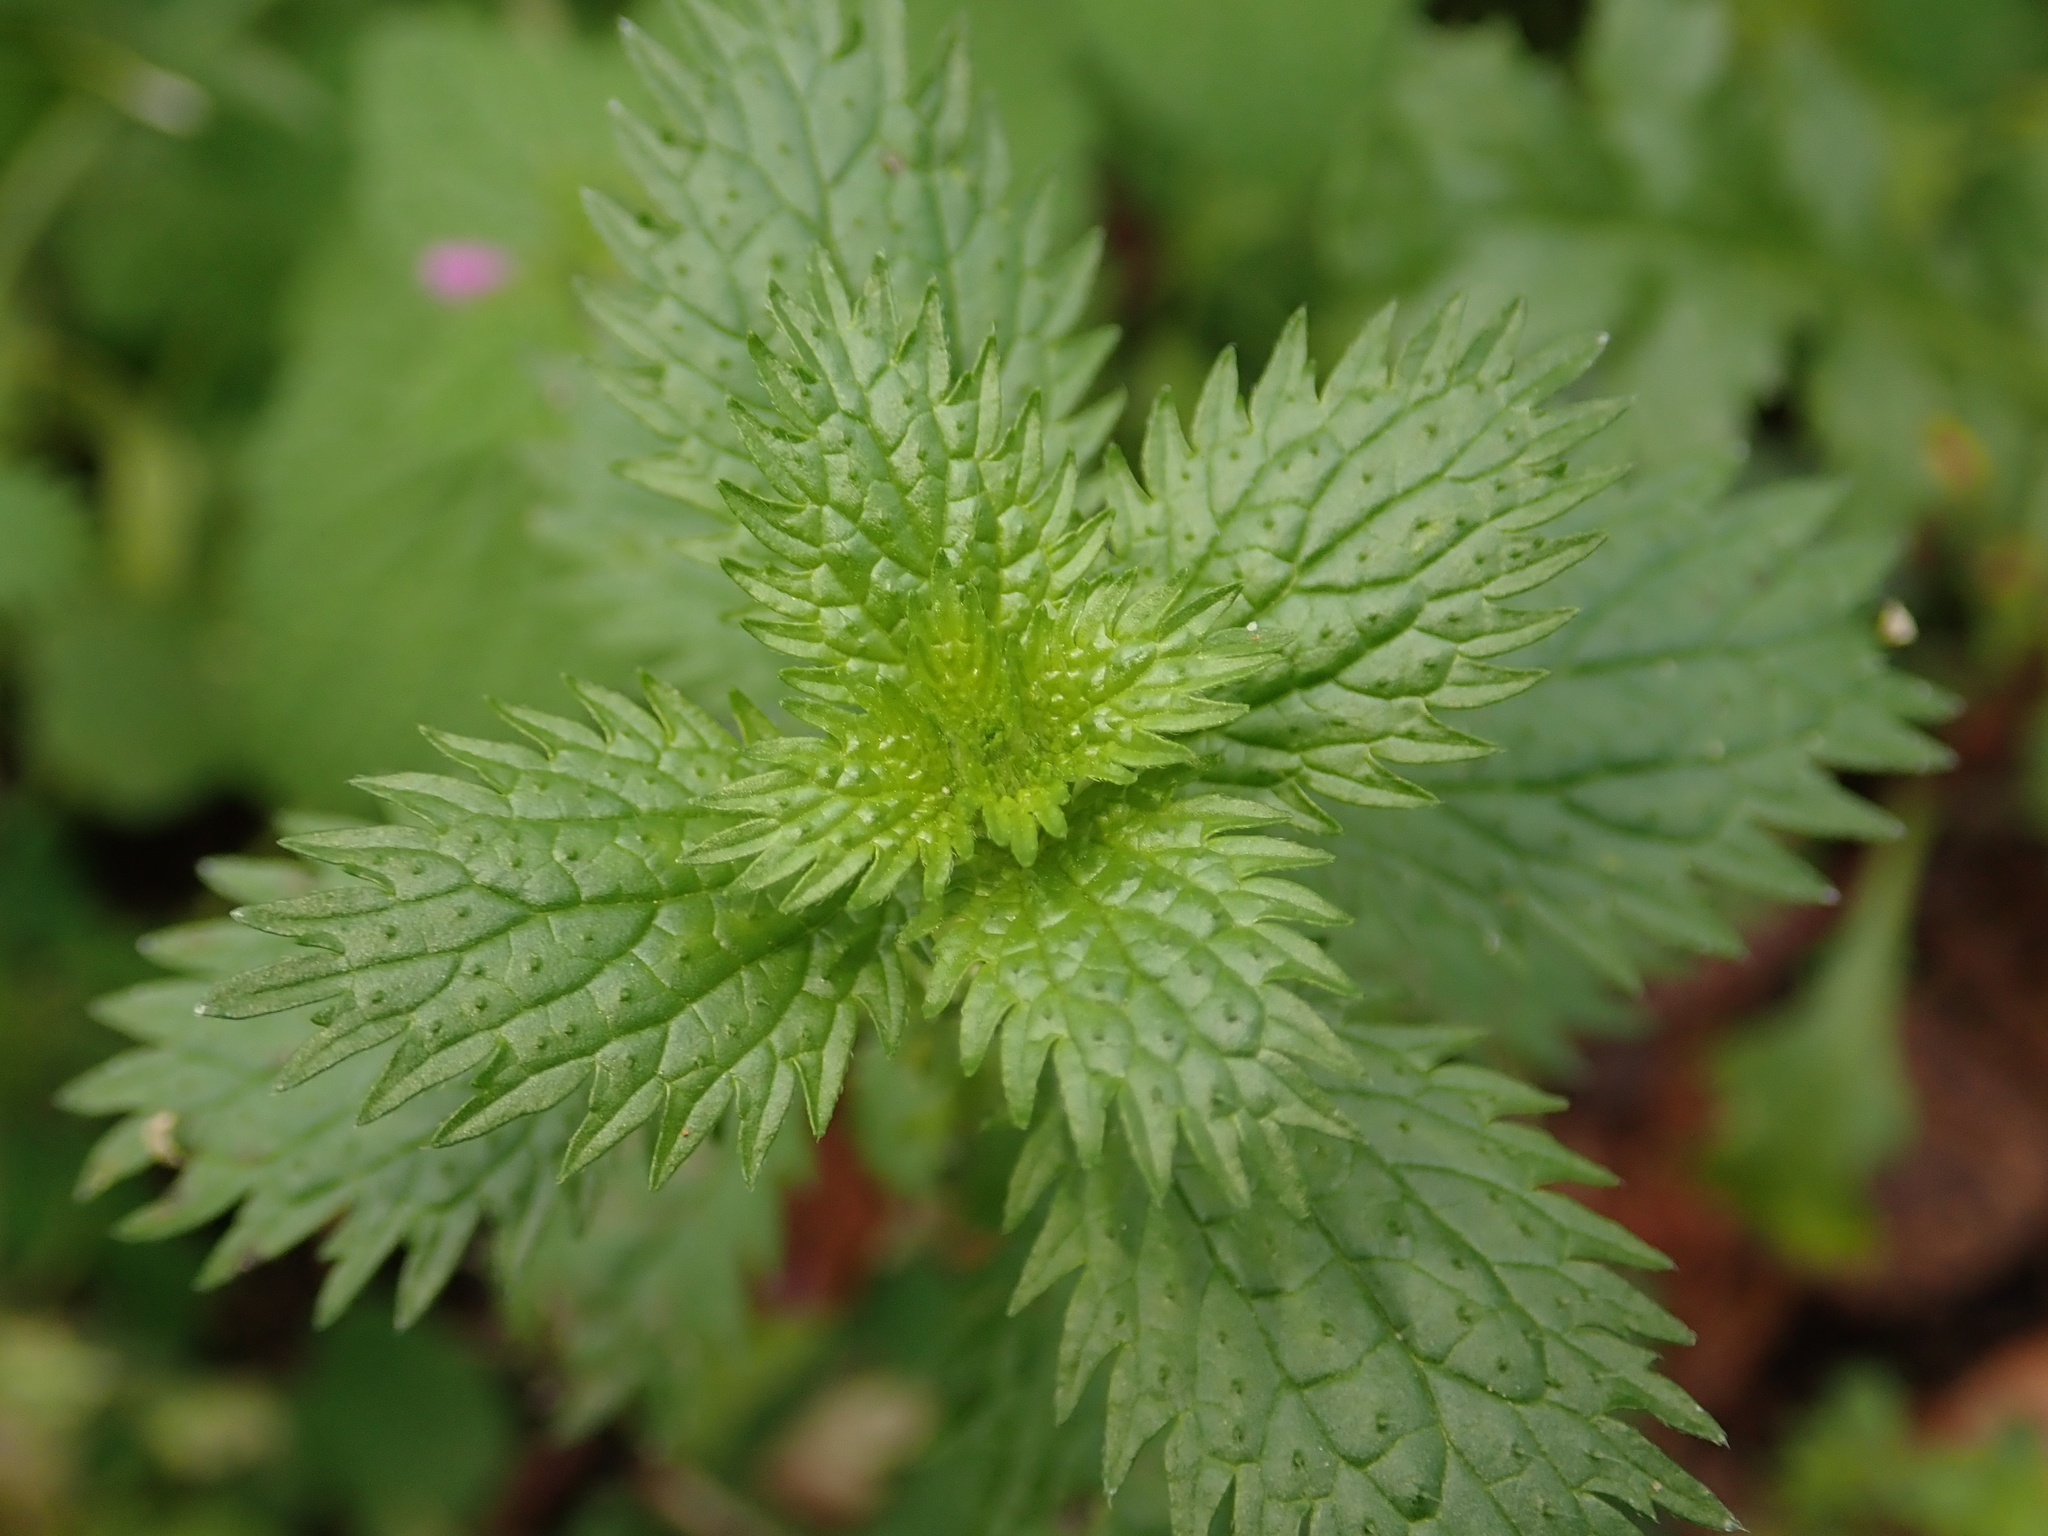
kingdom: Plantae
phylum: Tracheophyta
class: Magnoliopsida
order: Rosales
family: Urticaceae
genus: Urtica
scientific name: Urtica urens
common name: Dwarf nettle
